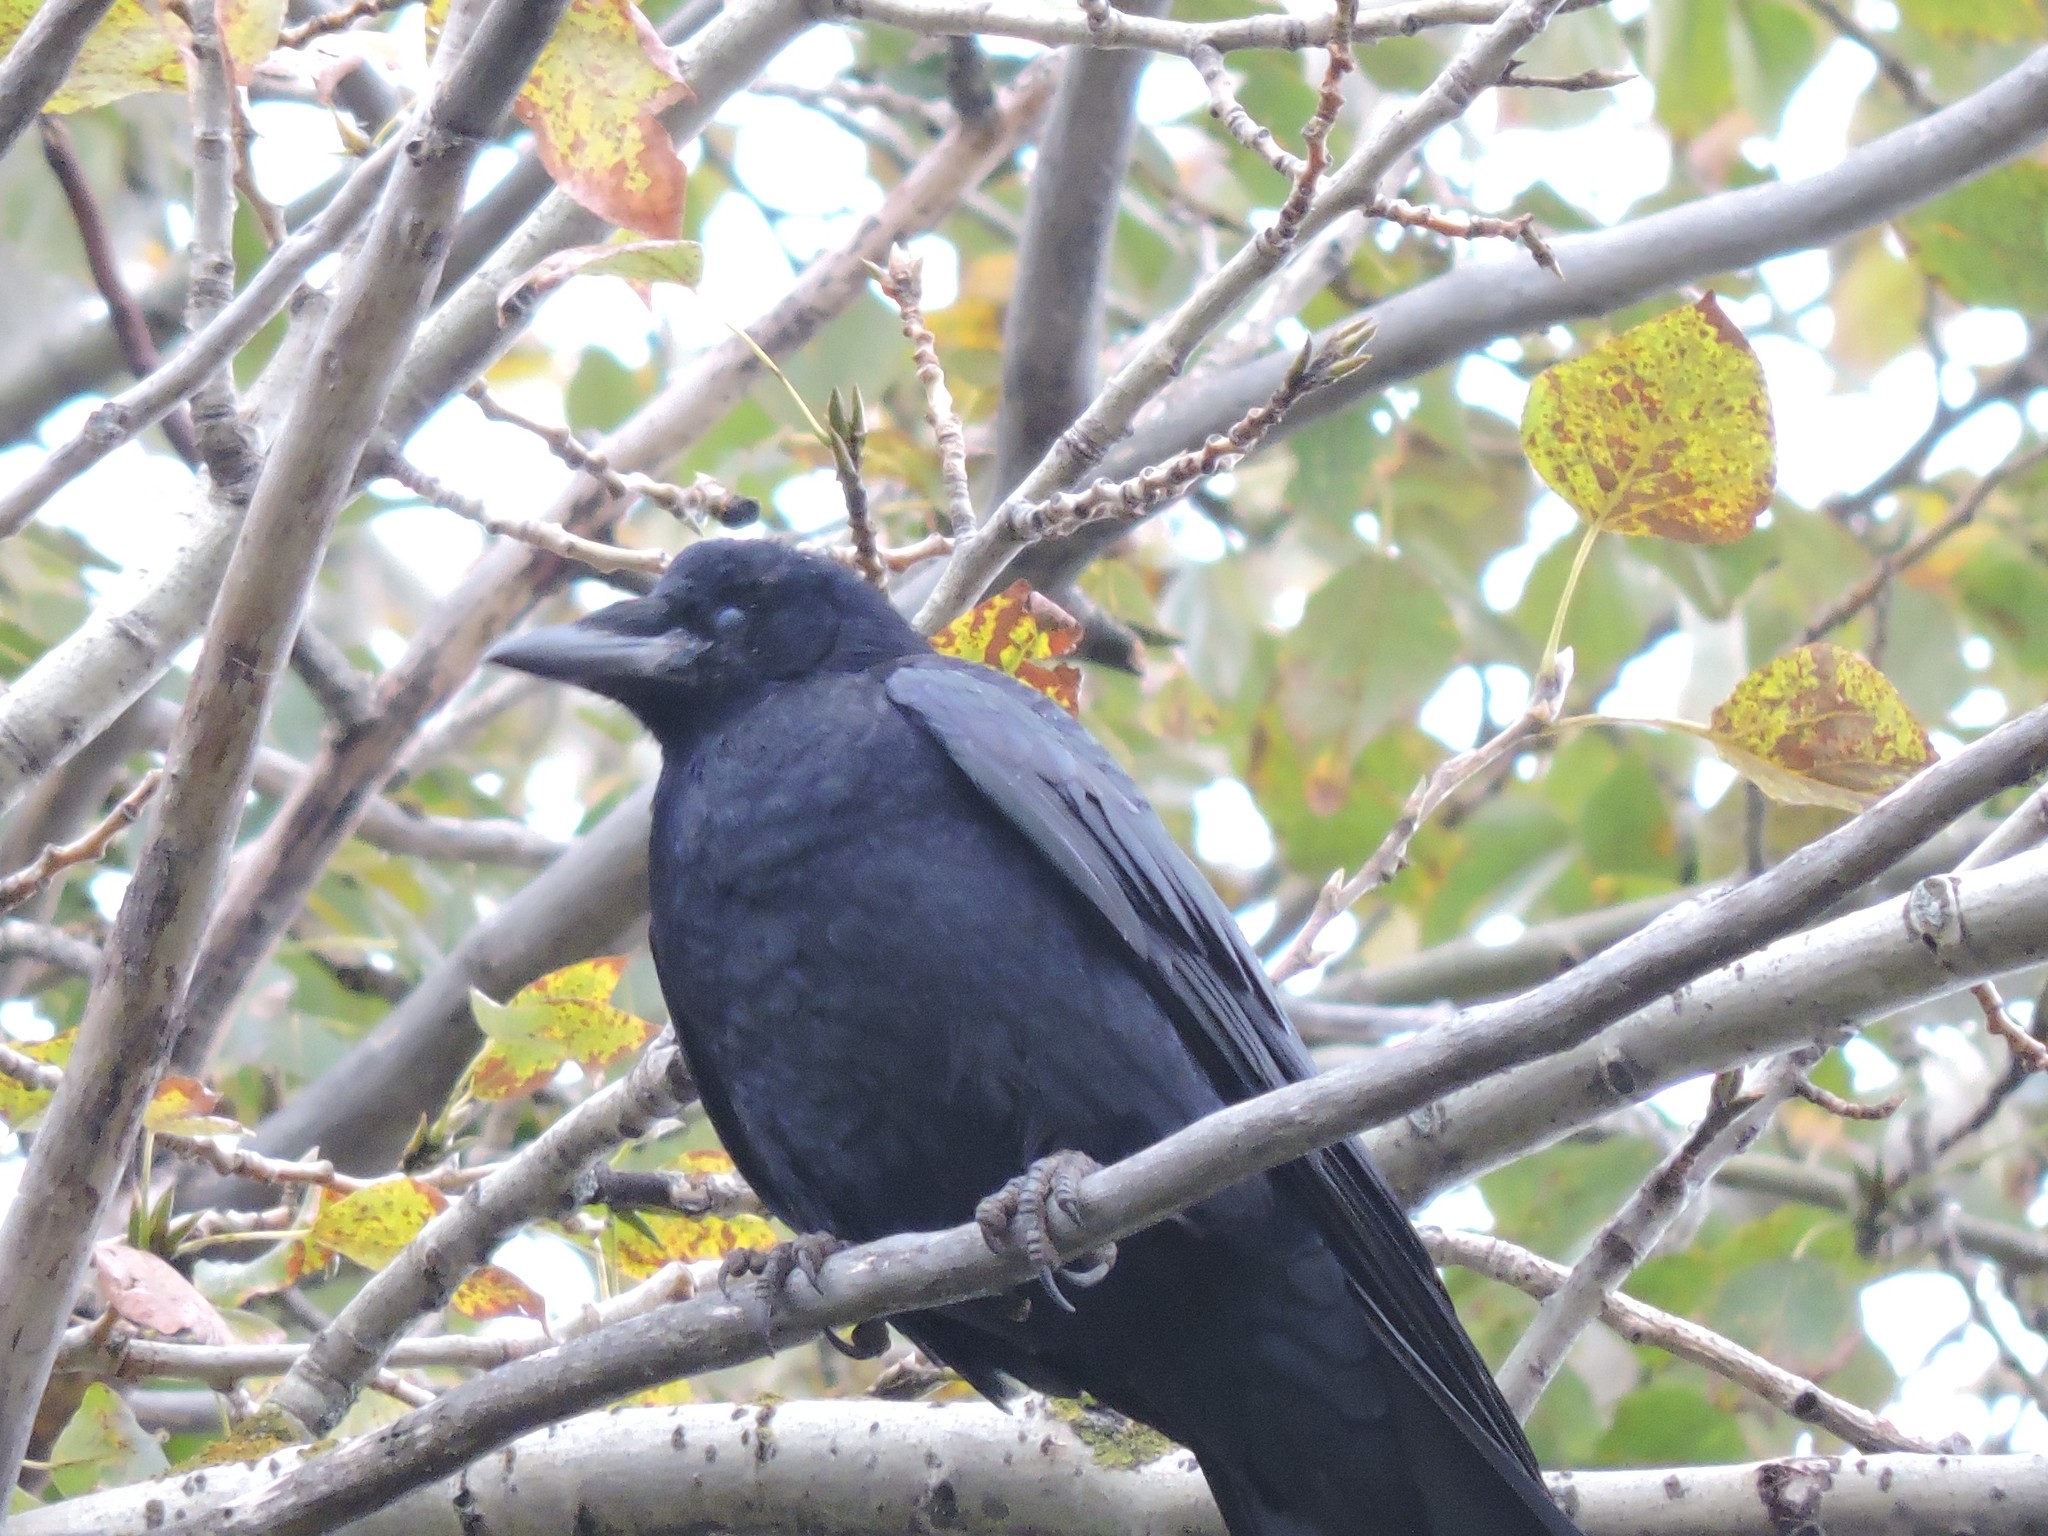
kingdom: Animalia
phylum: Chordata
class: Aves
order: Passeriformes
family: Corvidae
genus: Corvus
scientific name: Corvus frugilegus
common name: Rook
